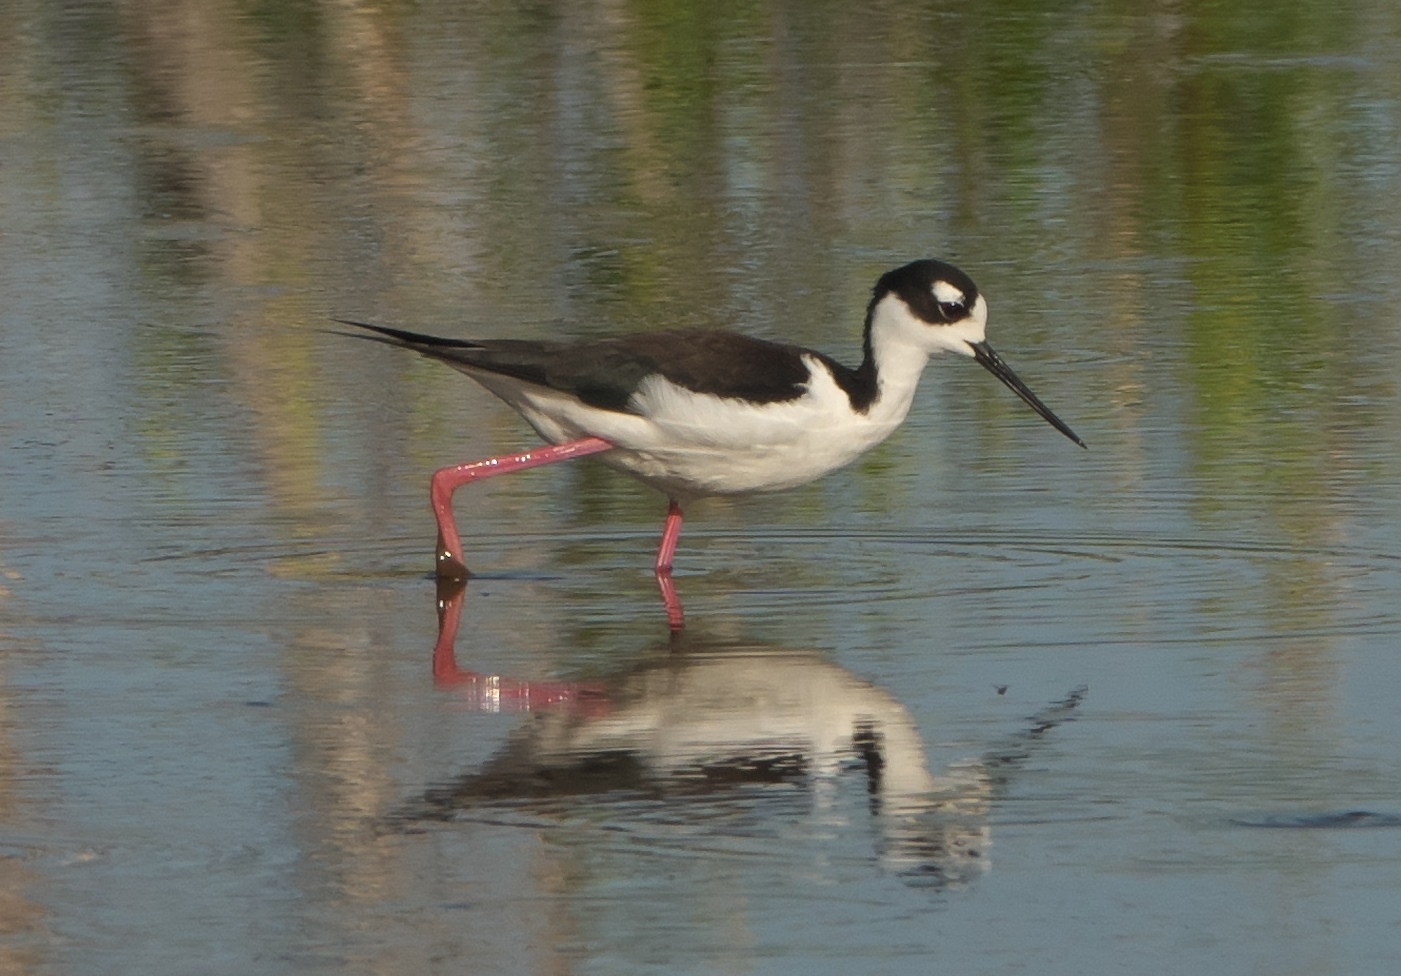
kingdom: Animalia
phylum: Chordata
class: Aves
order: Charadriiformes
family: Recurvirostridae
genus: Himantopus
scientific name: Himantopus mexicanus
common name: Black-necked stilt
